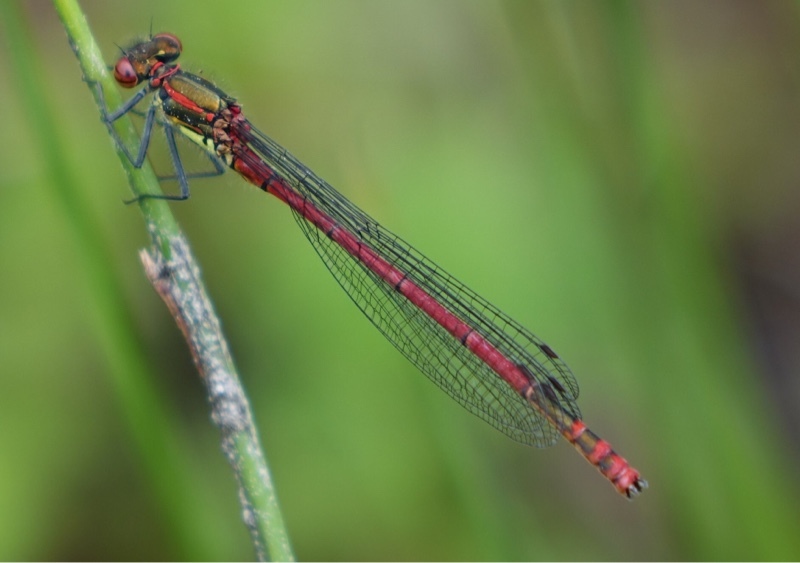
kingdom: Animalia
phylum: Arthropoda
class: Insecta
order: Odonata
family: Coenagrionidae
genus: Pyrrhosoma
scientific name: Pyrrhosoma nymphula
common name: Large red damsel
